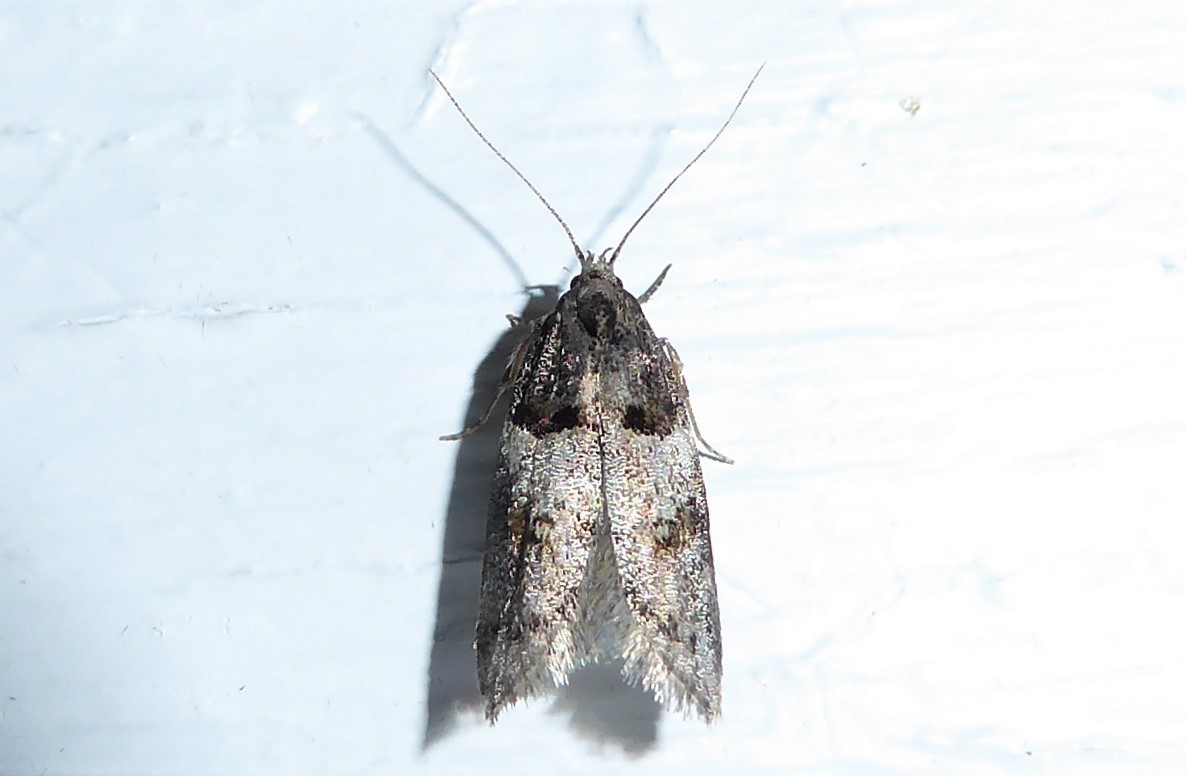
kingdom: Animalia
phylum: Arthropoda
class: Insecta
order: Lepidoptera
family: Oecophoridae
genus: Trachypepla
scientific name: Trachypepla contritella
